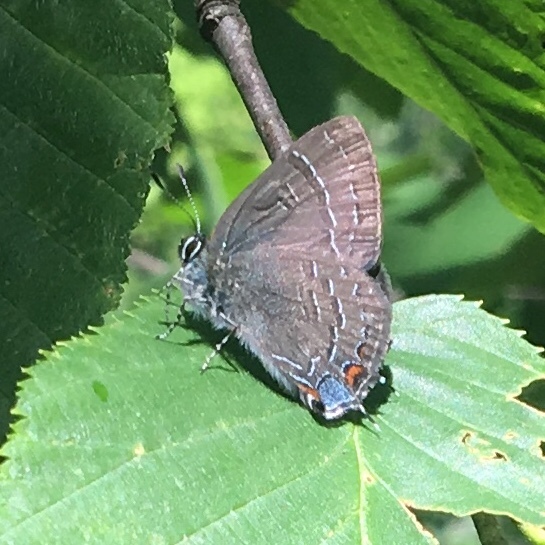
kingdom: Animalia
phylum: Arthropoda
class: Insecta
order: Lepidoptera
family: Lycaenidae
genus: Satyrium
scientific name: Satyrium calanus
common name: Banded hairstreak
